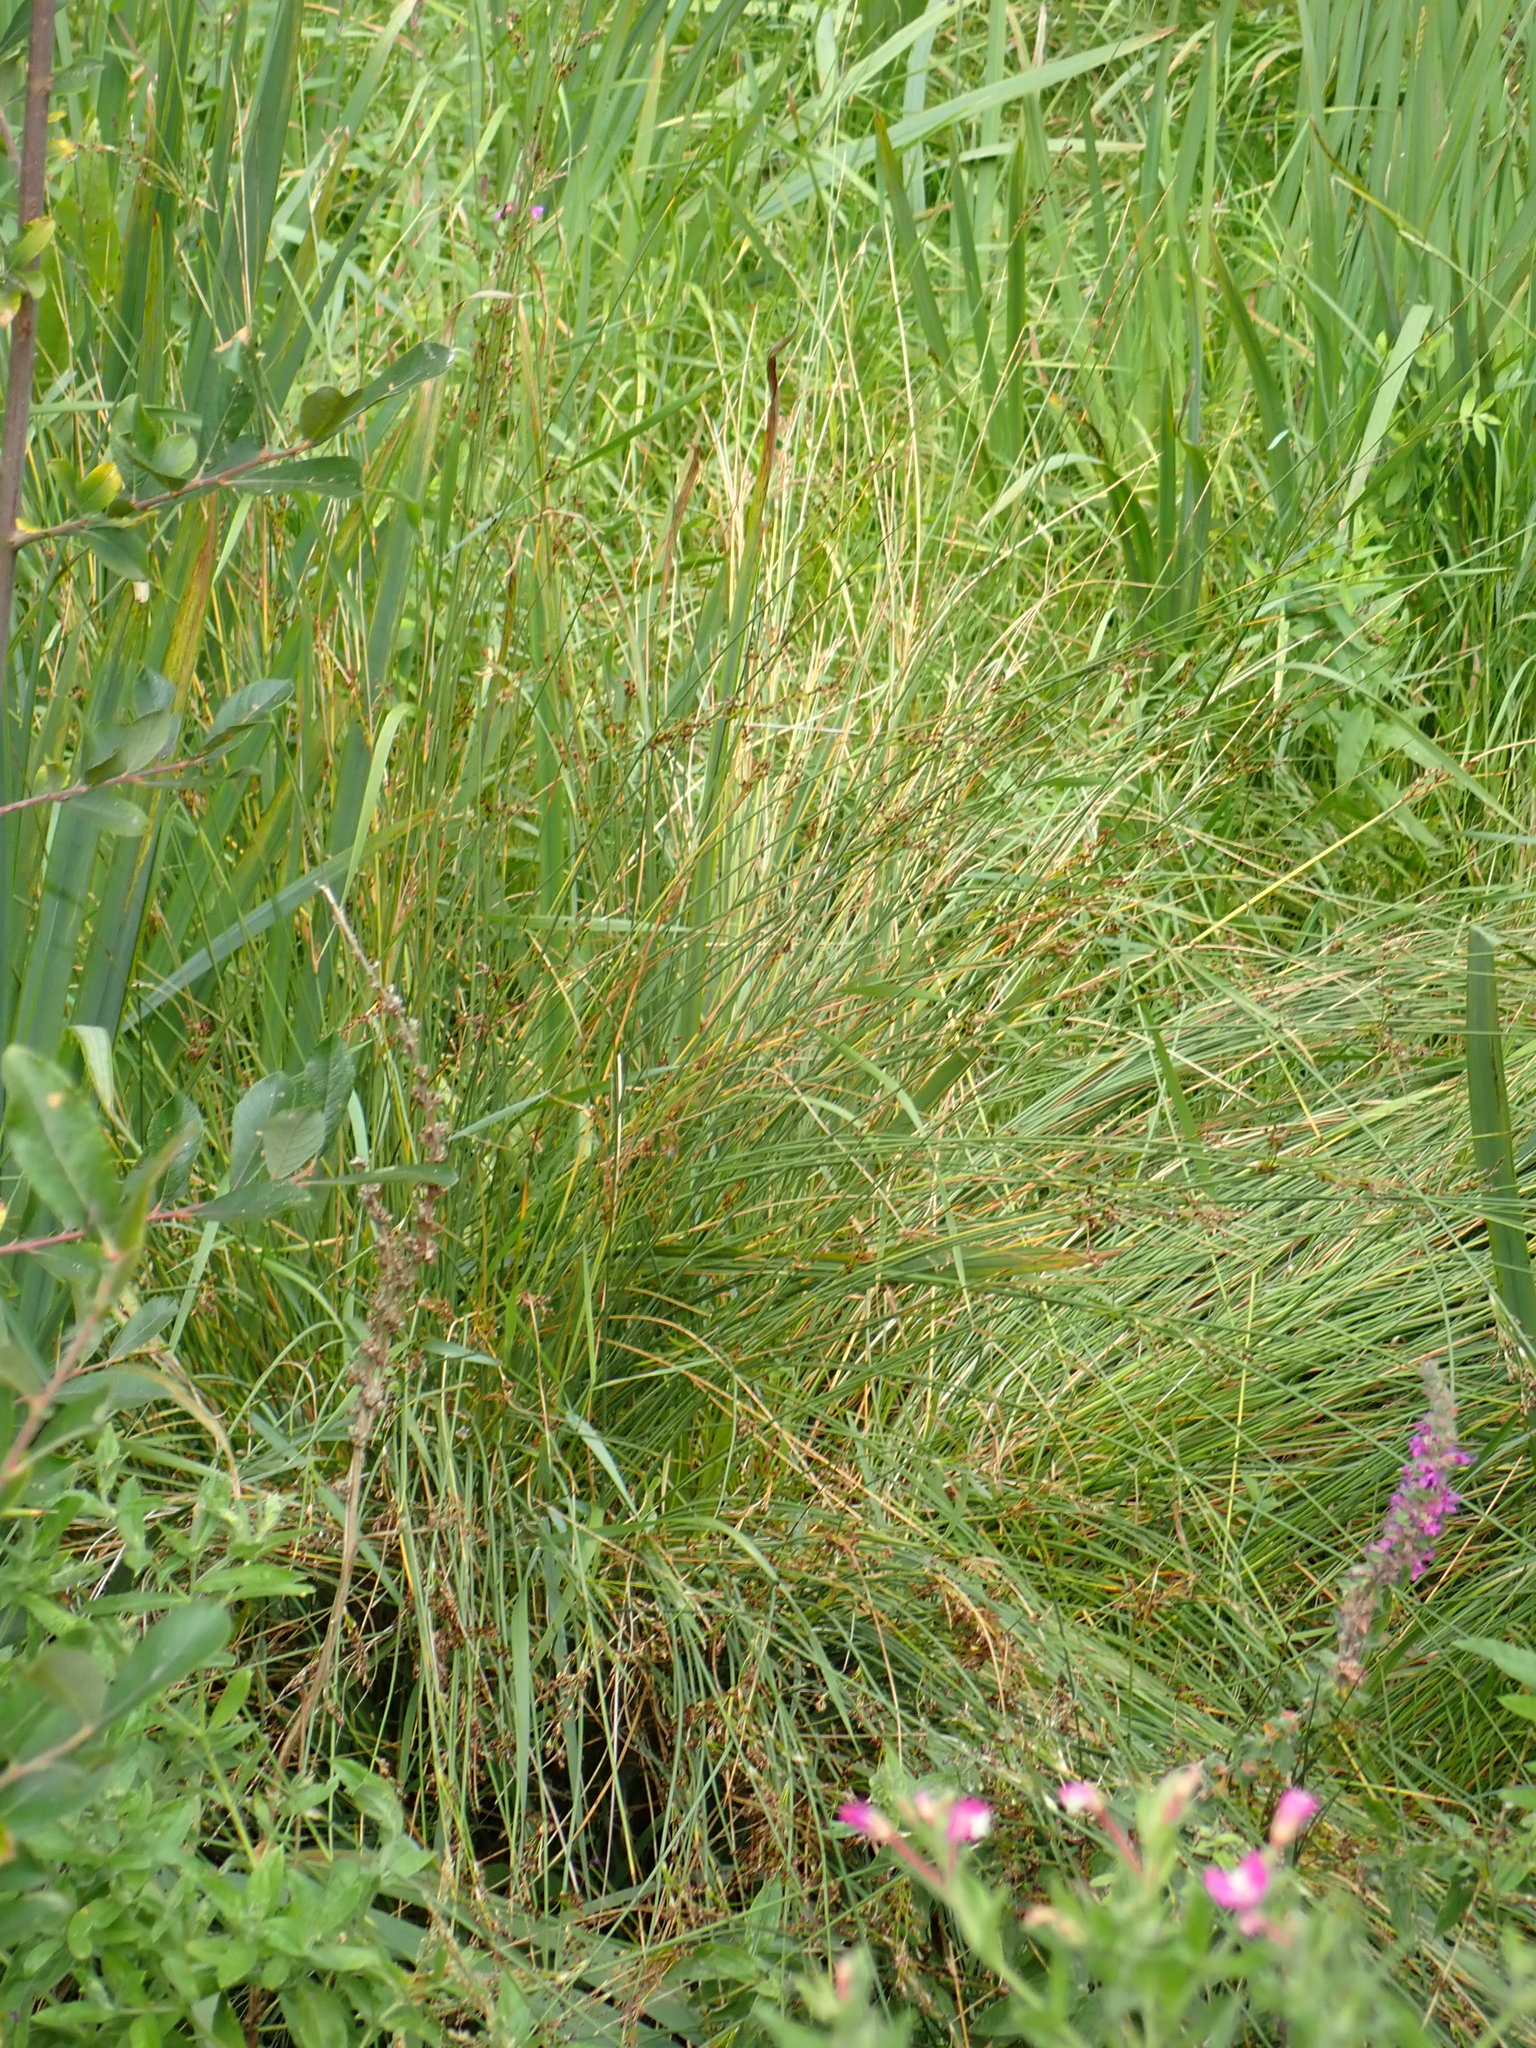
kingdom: Plantae
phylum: Tracheophyta
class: Liliopsida
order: Poales
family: Juncaceae
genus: Juncus
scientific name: Juncus inflexus
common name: Hard rush
